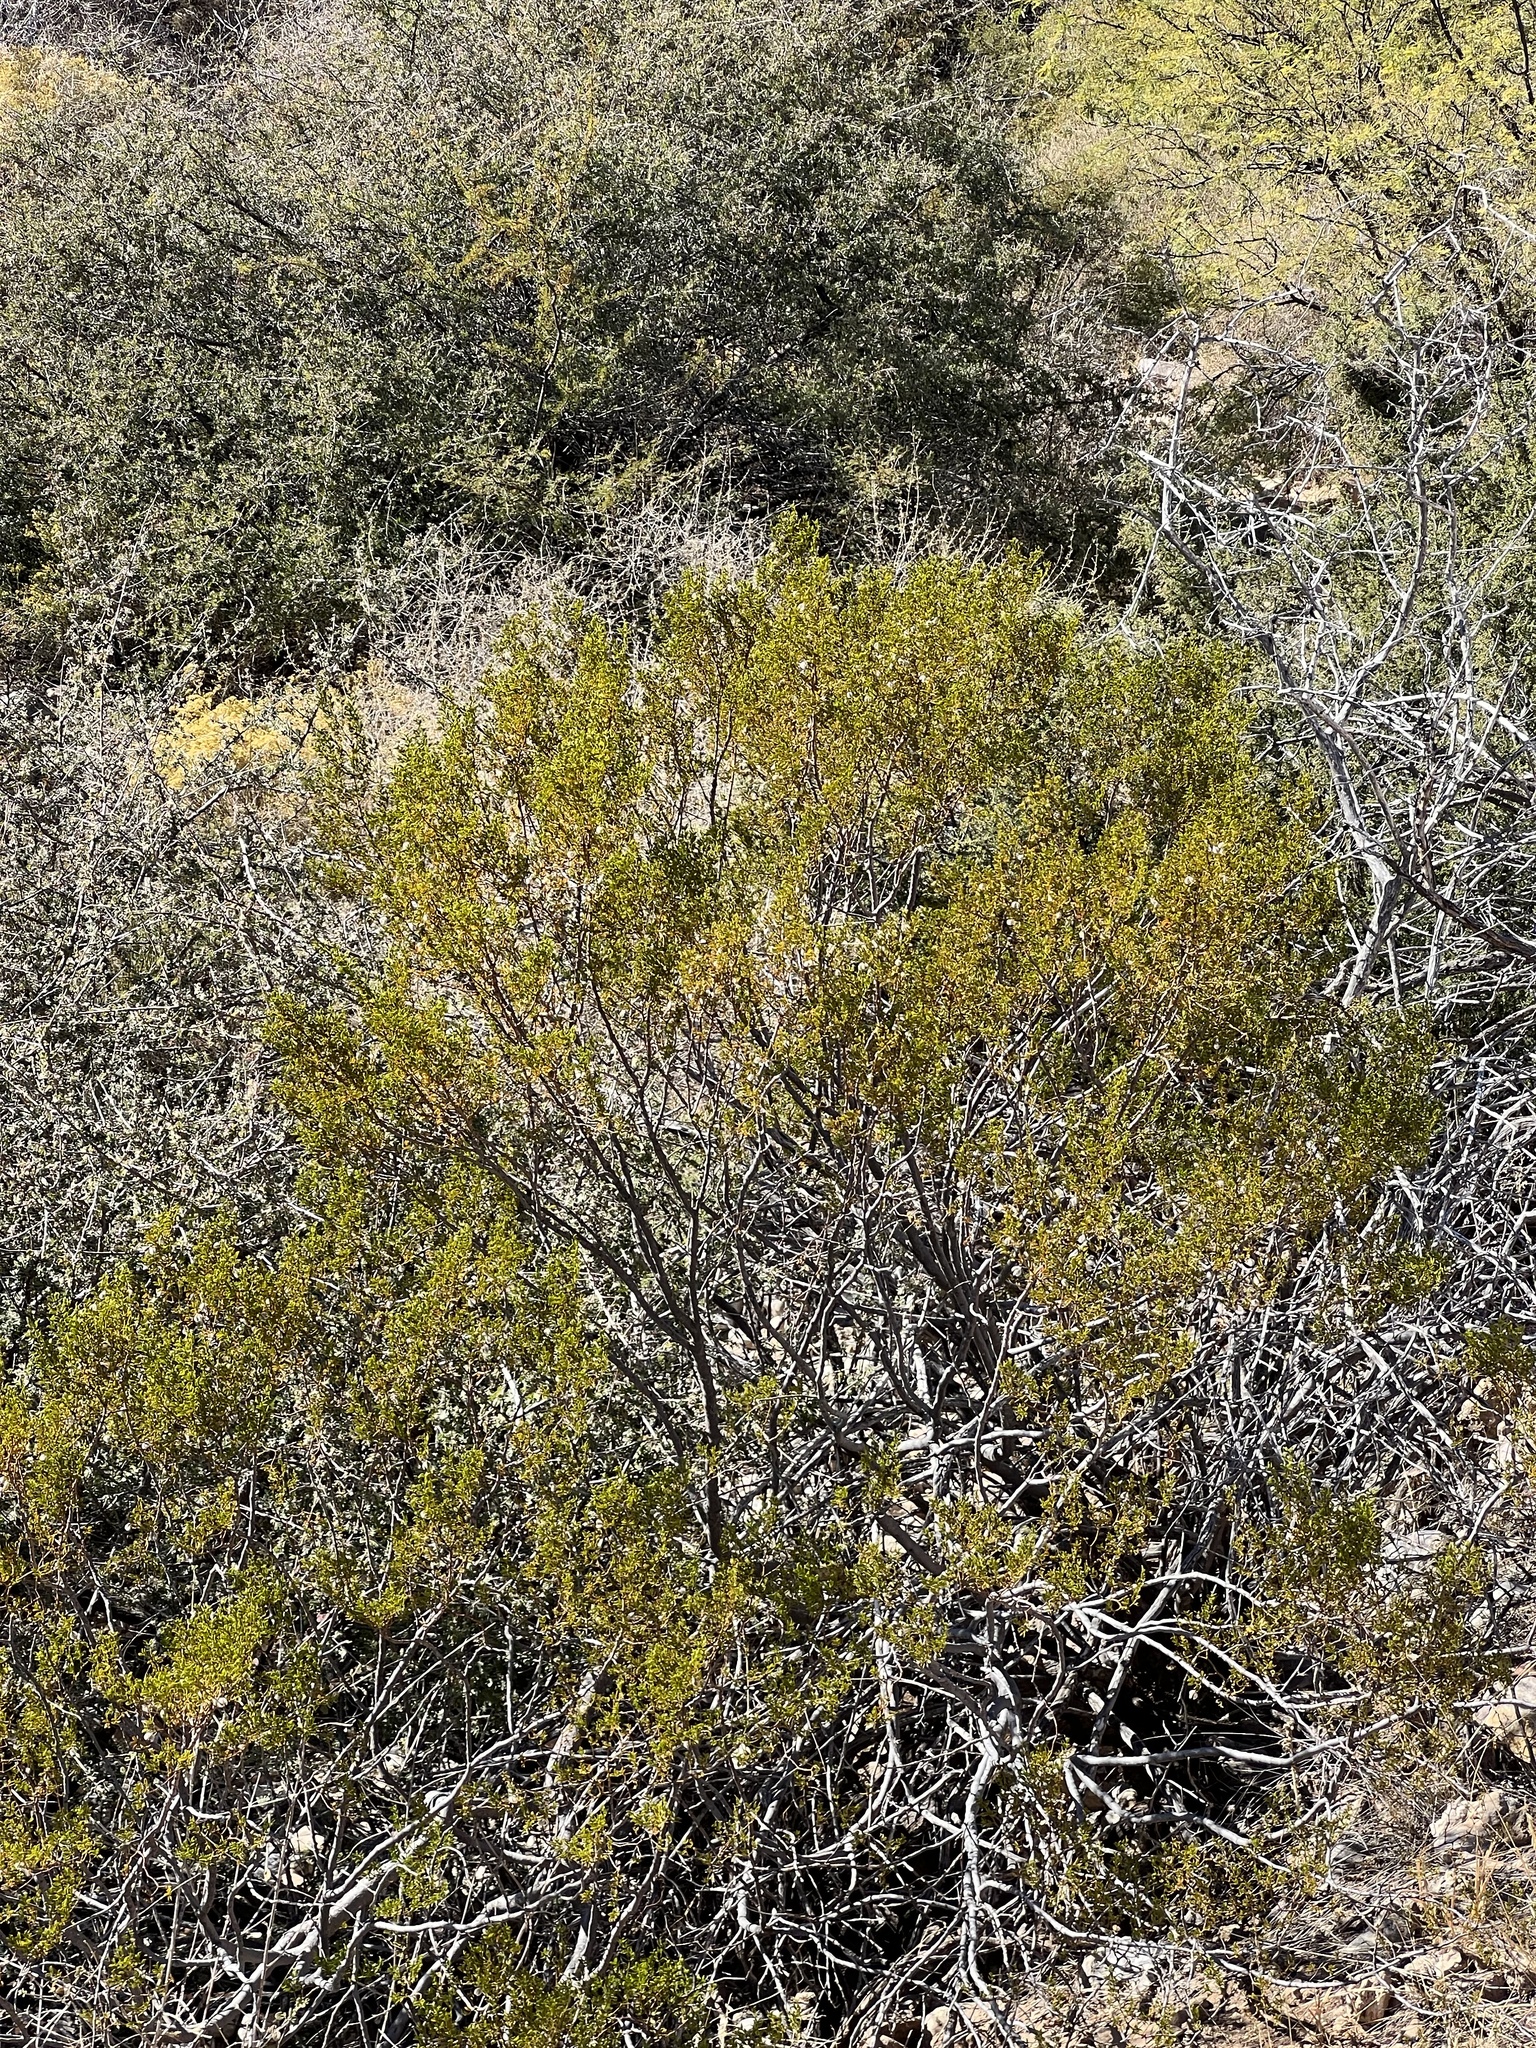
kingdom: Plantae
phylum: Tracheophyta
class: Magnoliopsida
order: Zygophyllales
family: Zygophyllaceae
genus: Larrea
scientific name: Larrea tridentata
